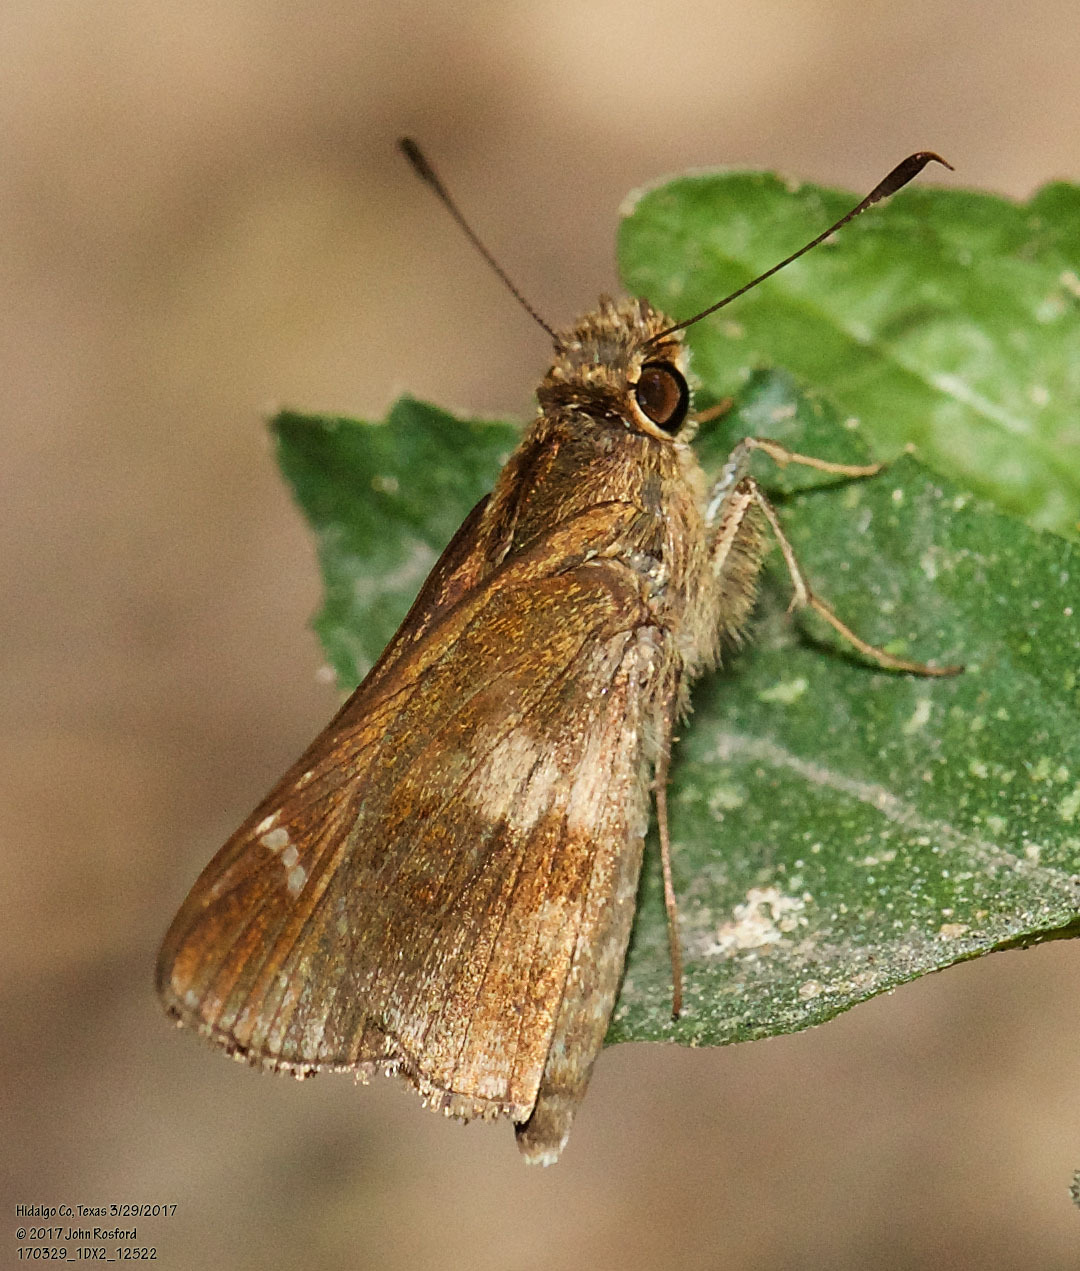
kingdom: Animalia
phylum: Arthropoda
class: Insecta
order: Lepidoptera
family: Hesperiidae
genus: Lerema
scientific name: Lerema accius
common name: Clouded skipper
